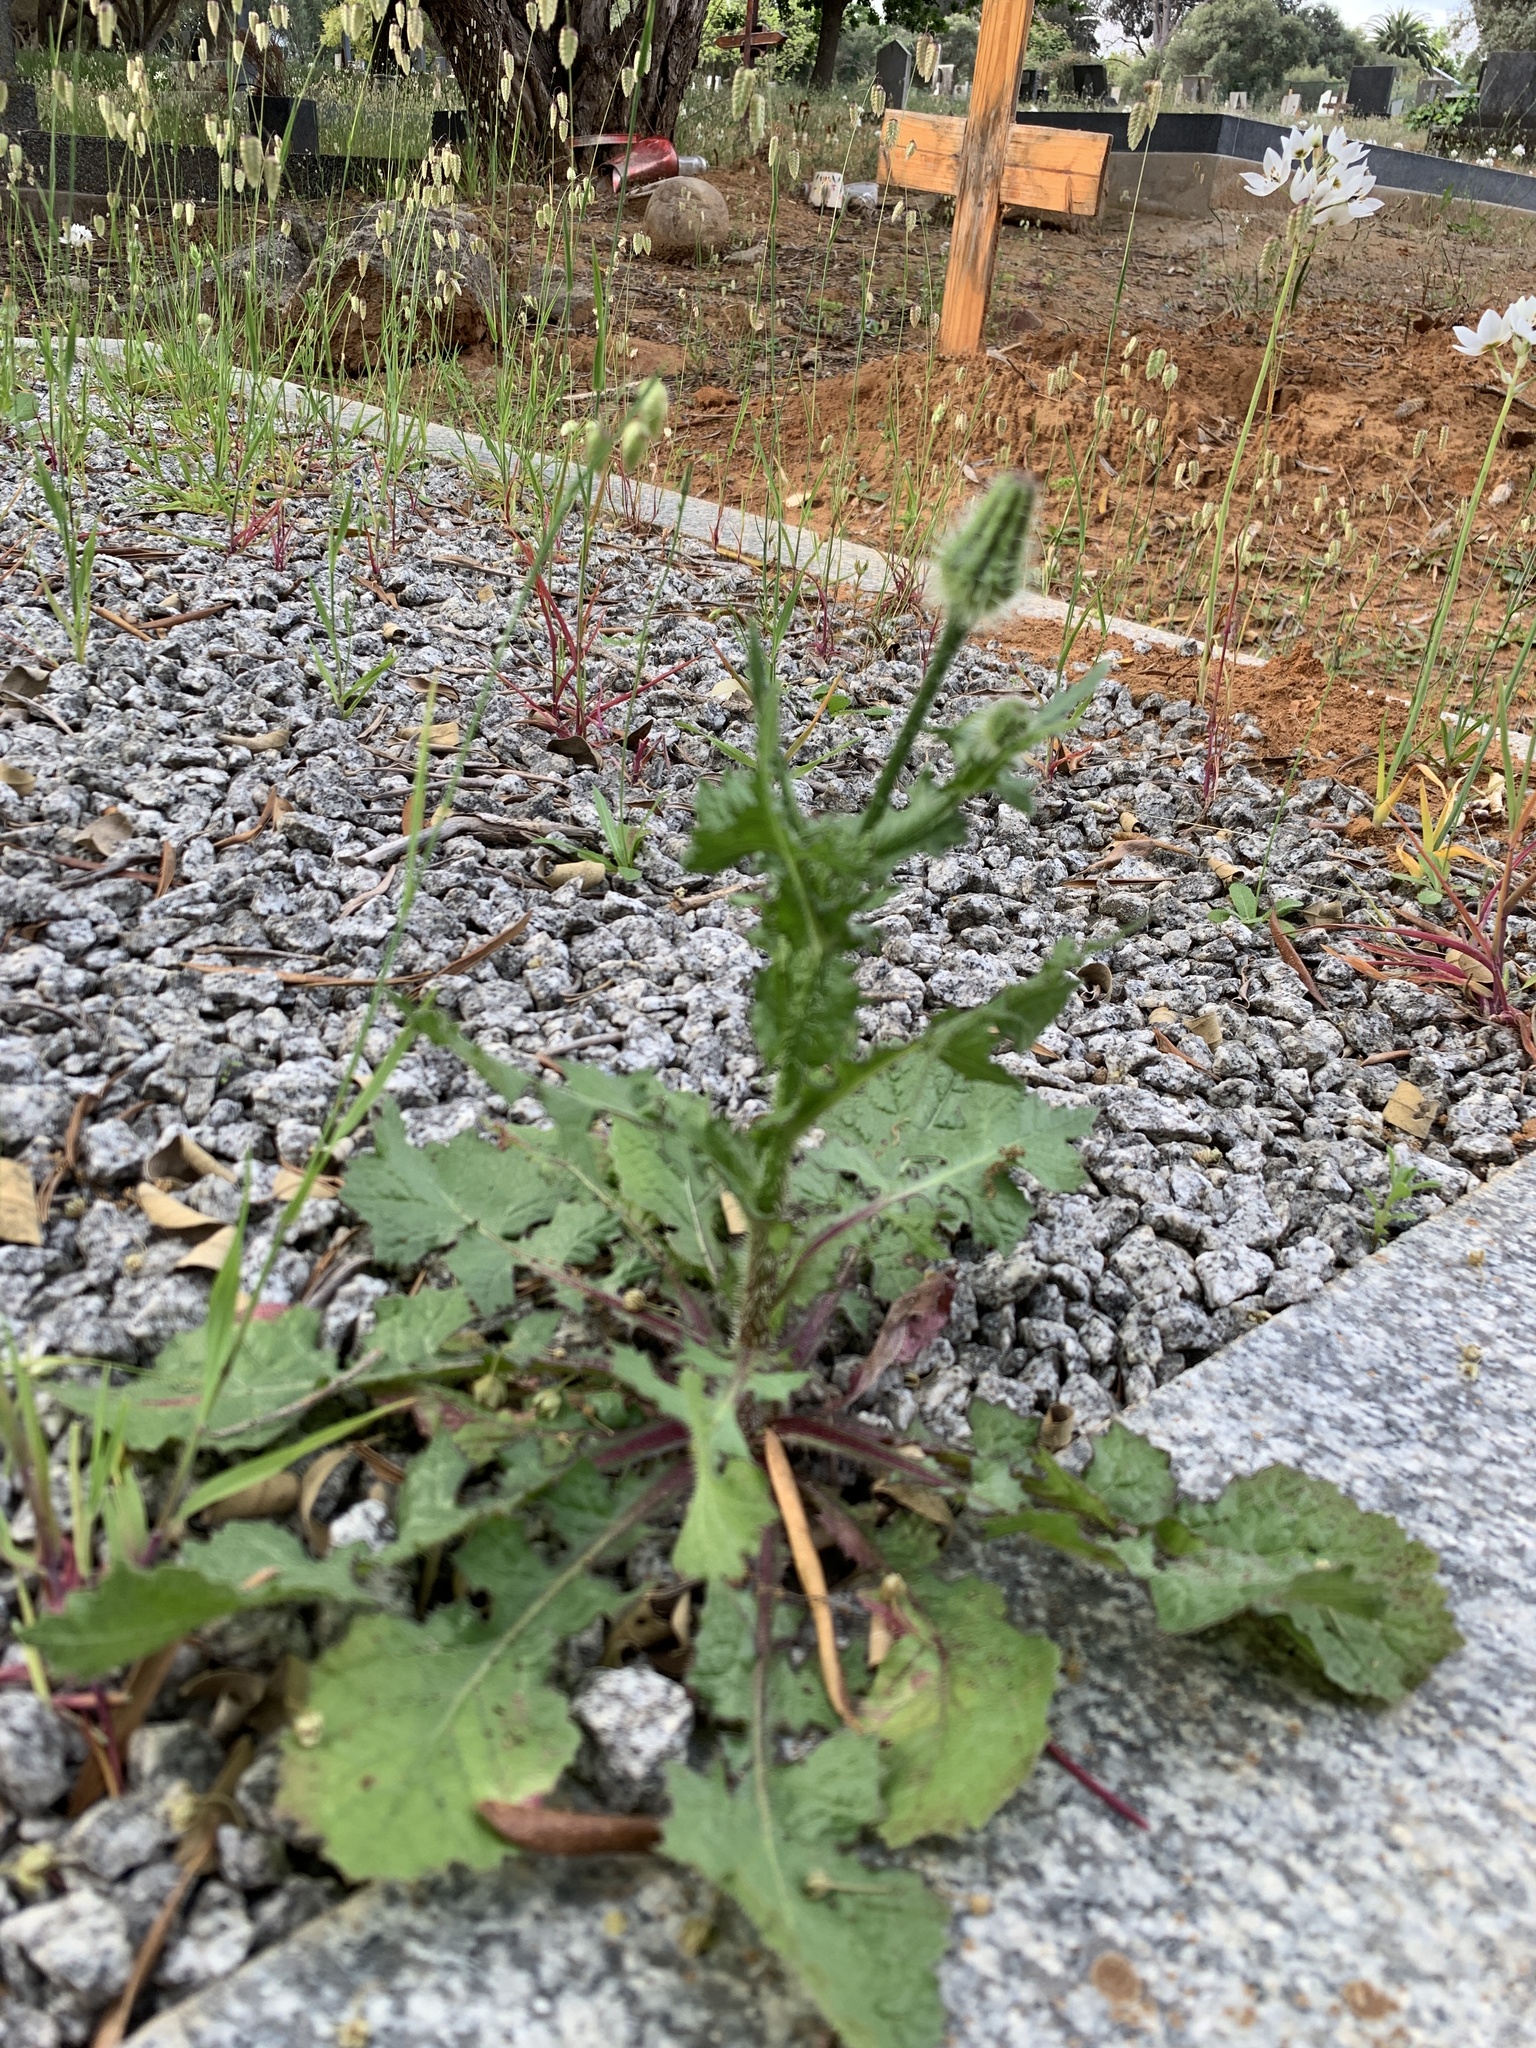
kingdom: Plantae
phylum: Tracheophyta
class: Magnoliopsida
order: Asterales
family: Asteraceae
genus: Urospermum
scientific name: Urospermum picroides
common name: False hawkbit
